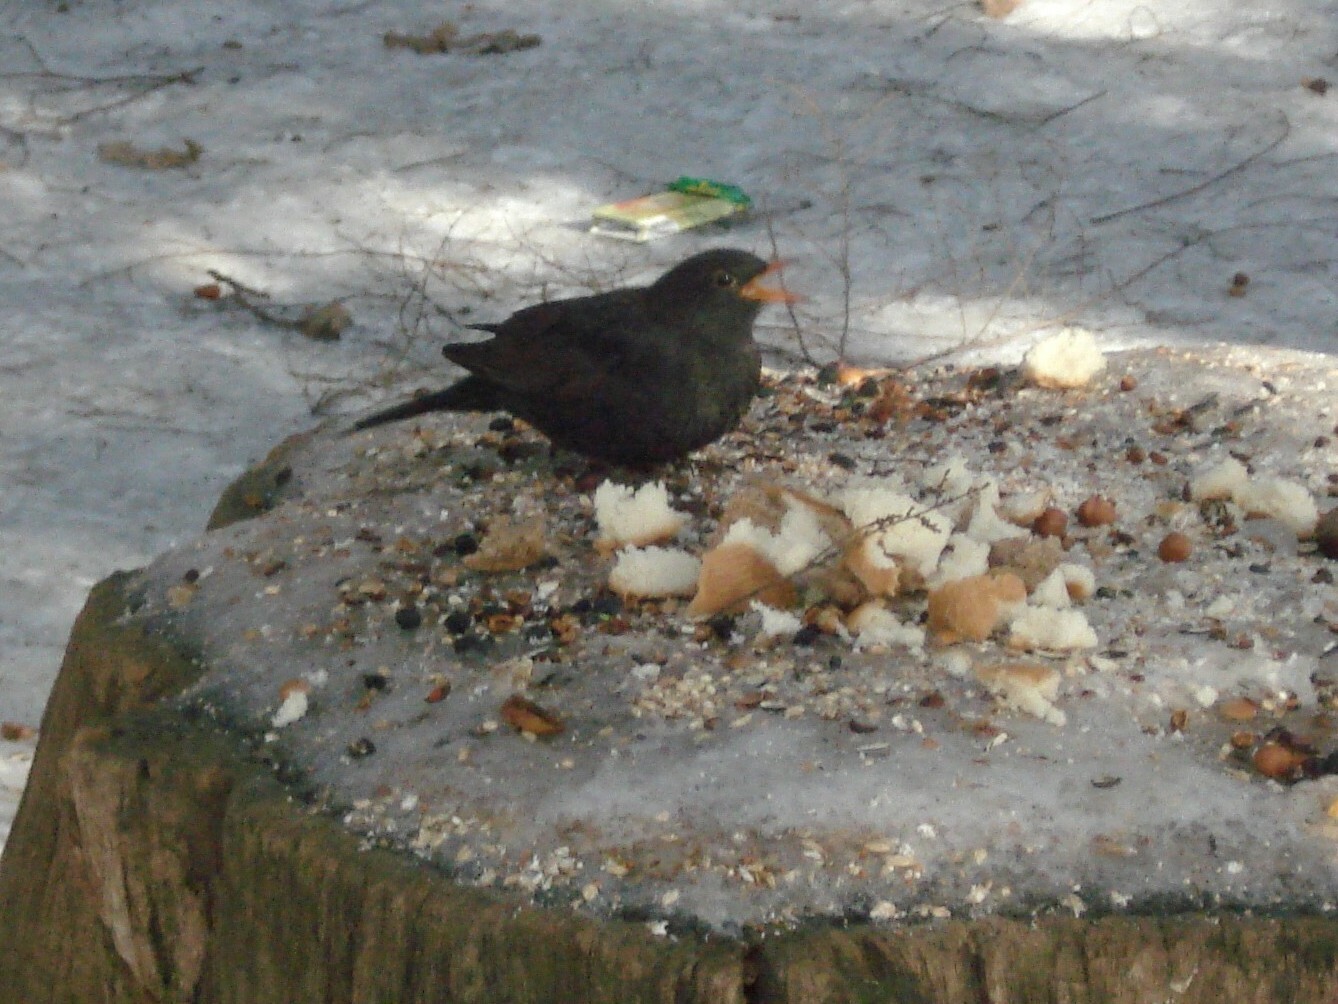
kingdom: Animalia
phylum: Chordata
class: Aves
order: Passeriformes
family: Turdidae
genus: Turdus
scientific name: Turdus merula
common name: Common blackbird
